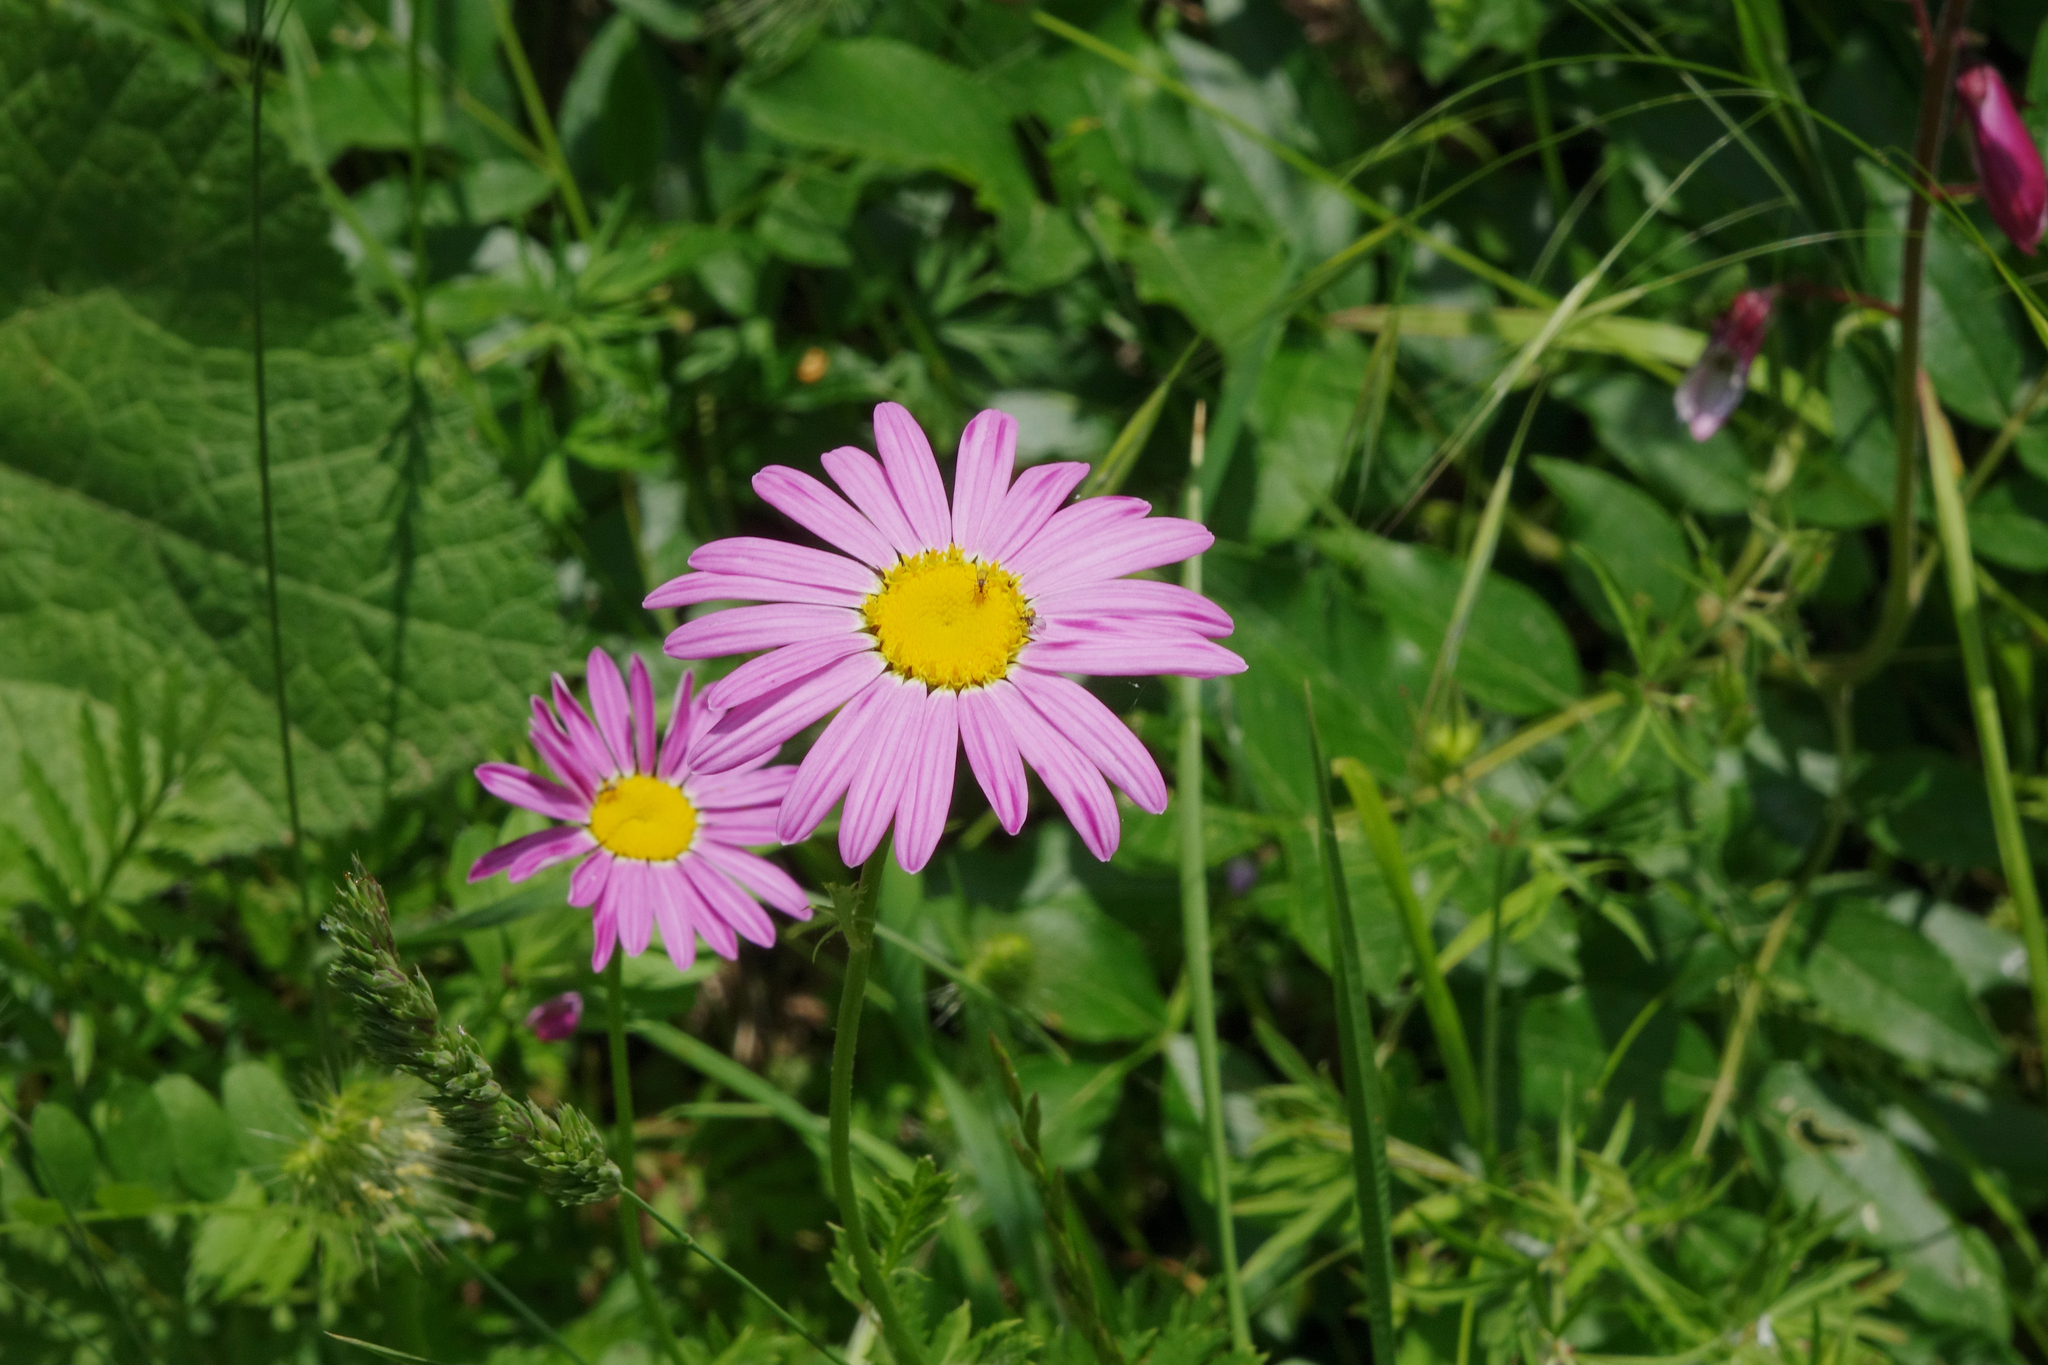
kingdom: Plantae
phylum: Tracheophyta
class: Magnoliopsida
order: Asterales
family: Asteraceae
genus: Tanacetum
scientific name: Tanacetum coccineum
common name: Pyrethum daisy
